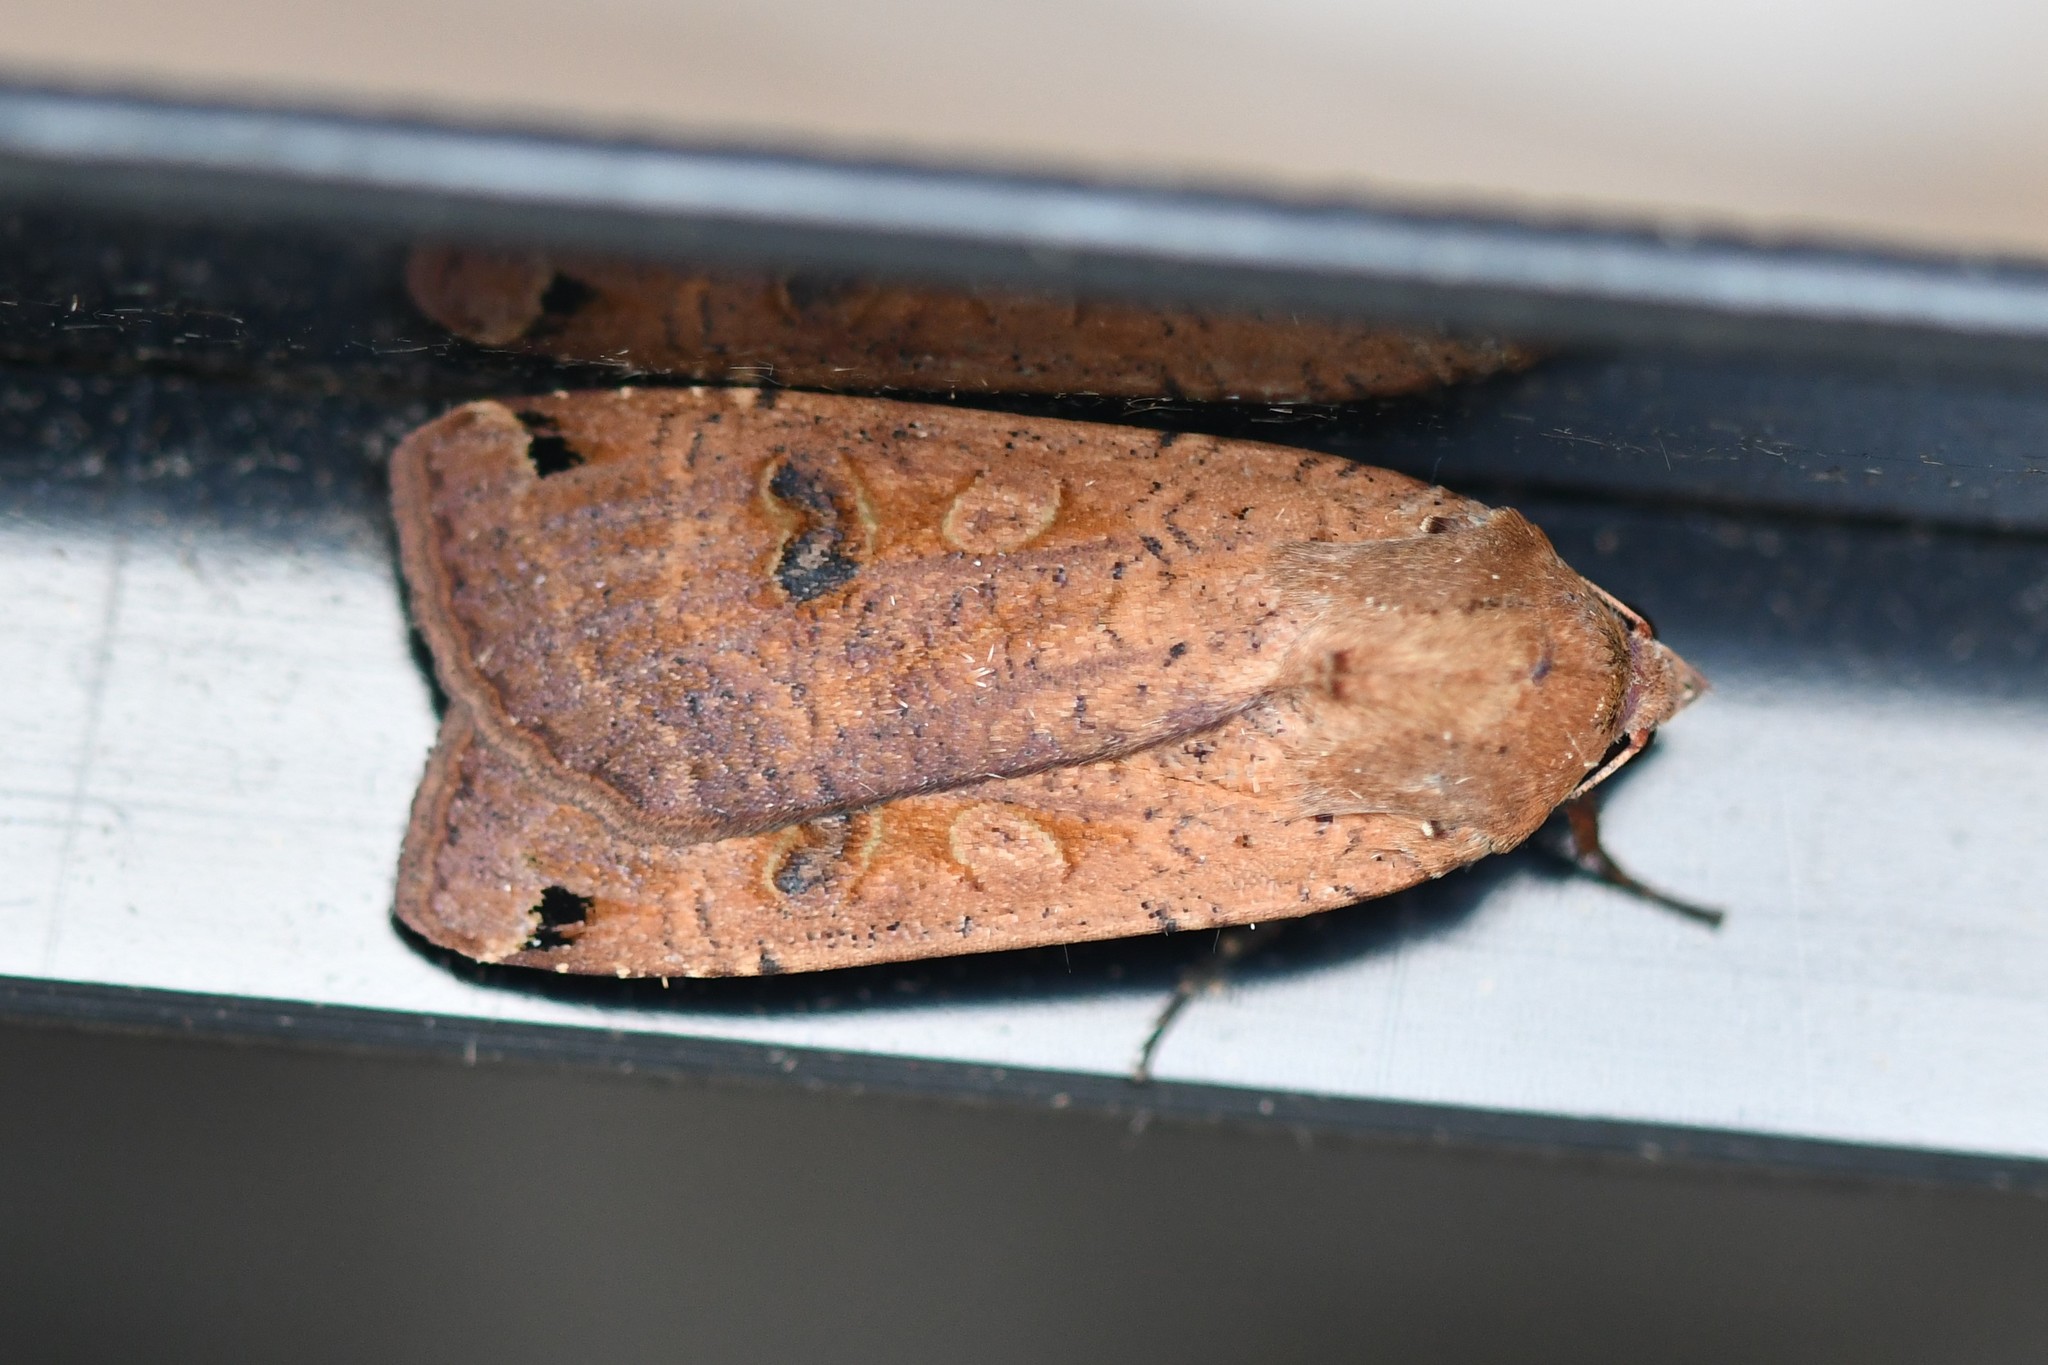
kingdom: Animalia
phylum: Arthropoda
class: Insecta
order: Lepidoptera
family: Noctuidae
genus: Noctua
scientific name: Noctua pronuba
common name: Large yellow underwing
